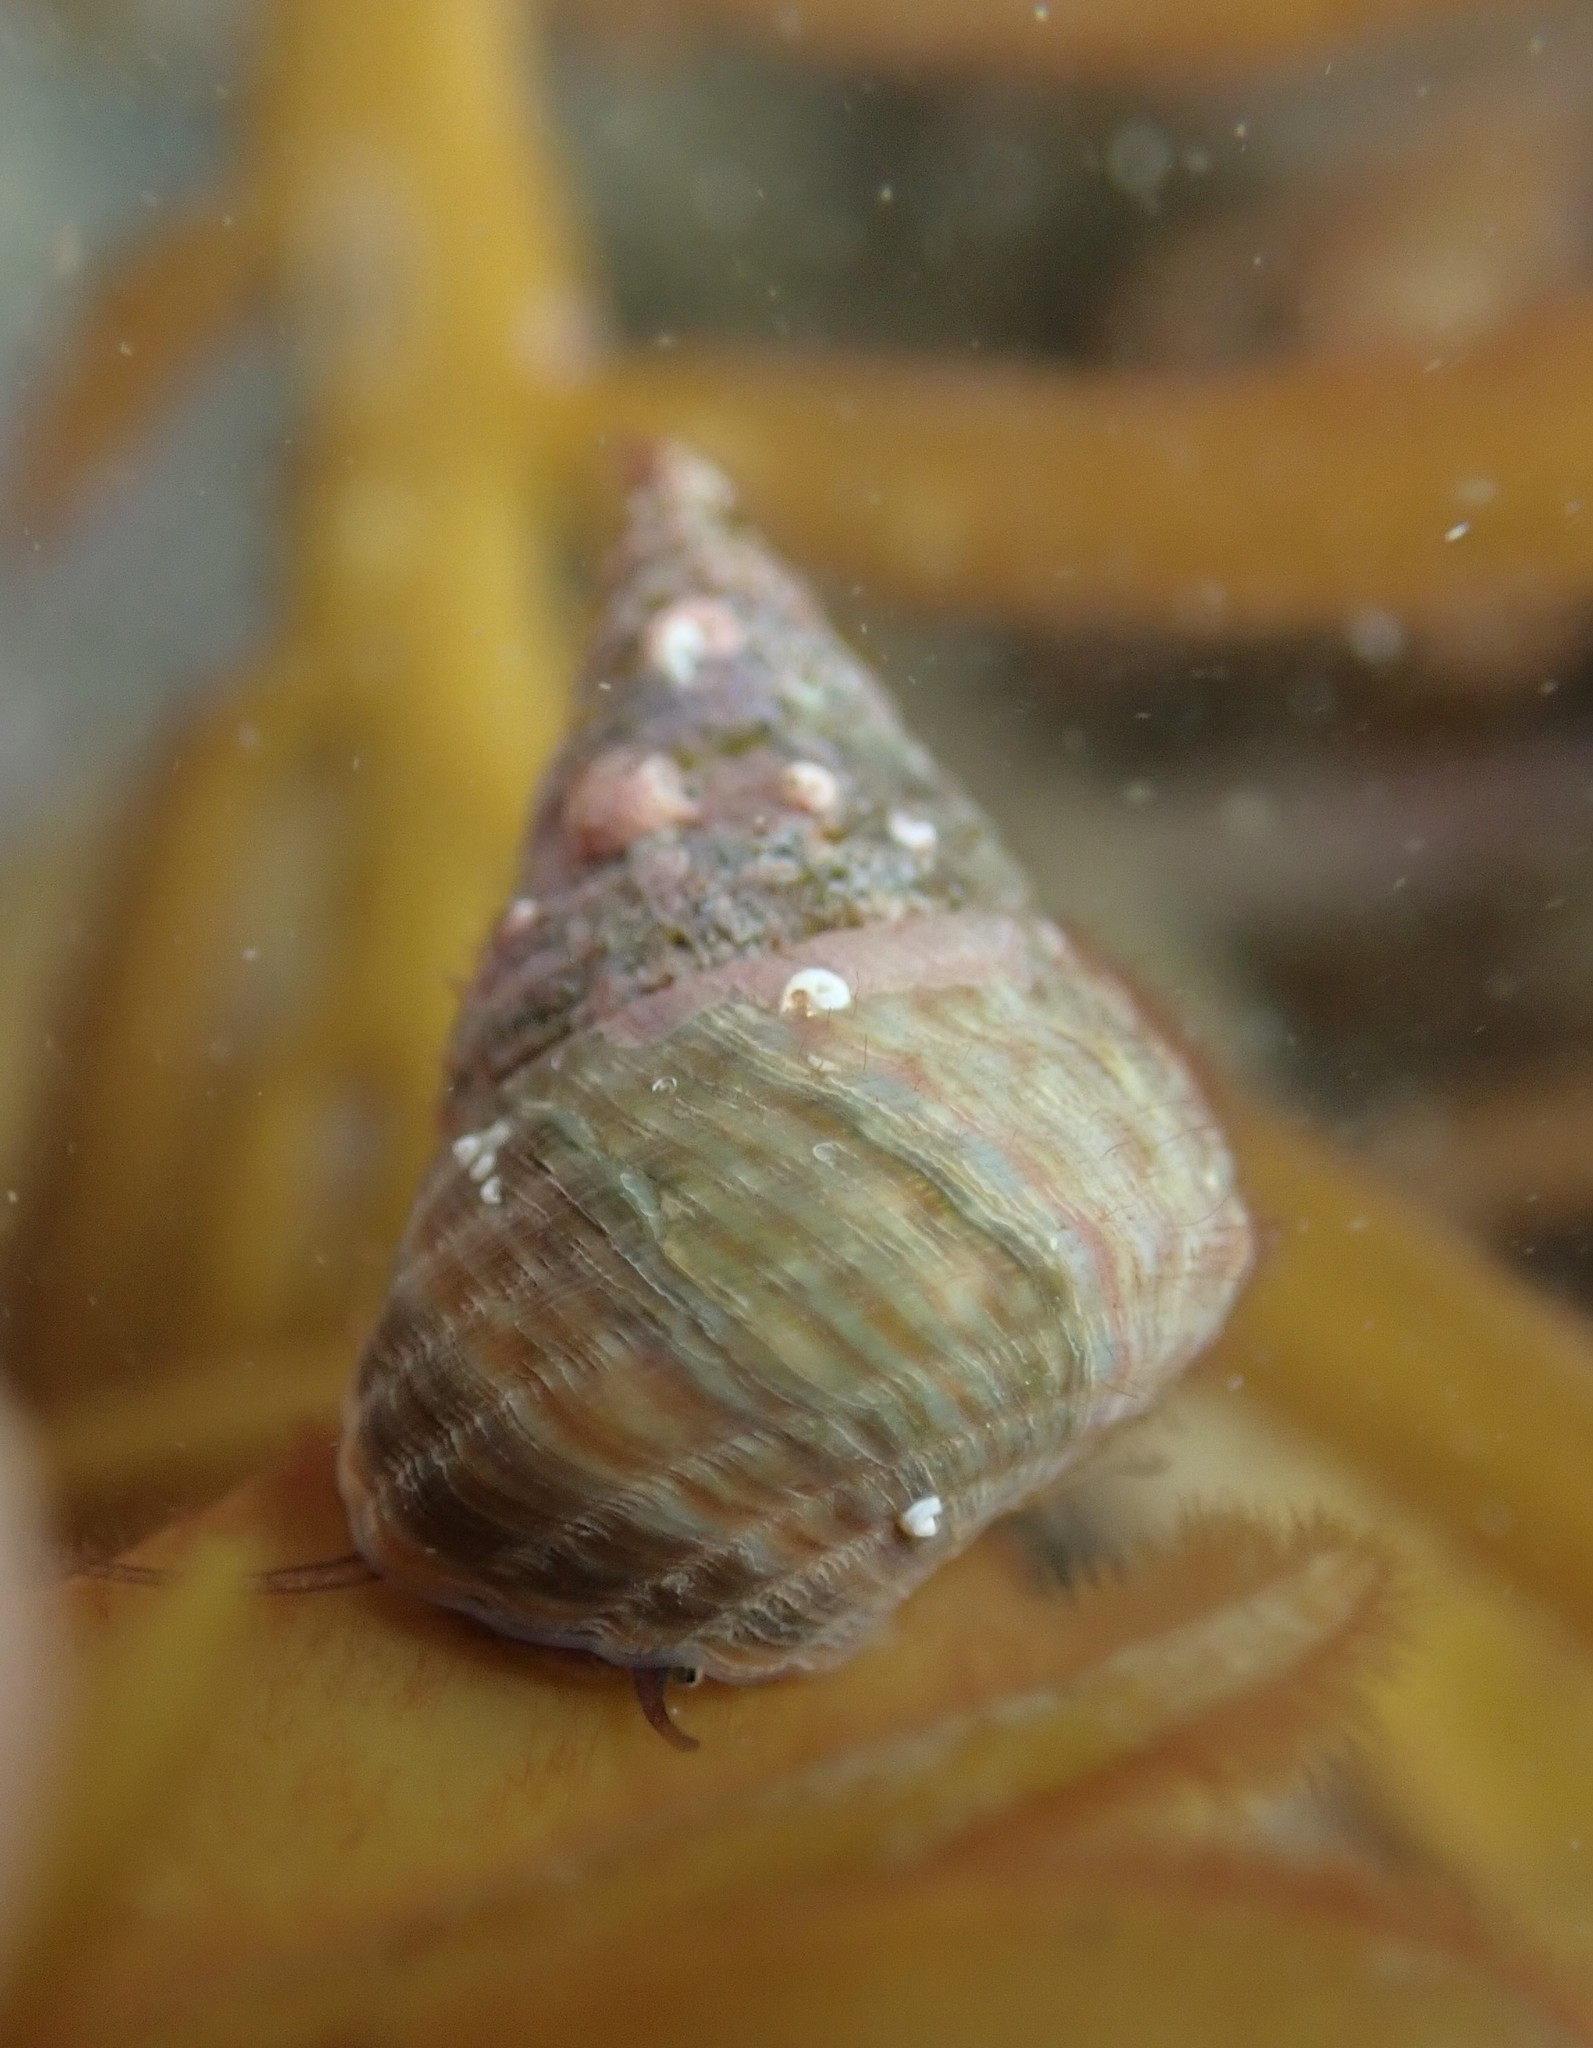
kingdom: Animalia
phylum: Mollusca
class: Gastropoda
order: Trochida
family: Trochidae
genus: Micrelenchus
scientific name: Micrelenchus purpureus
